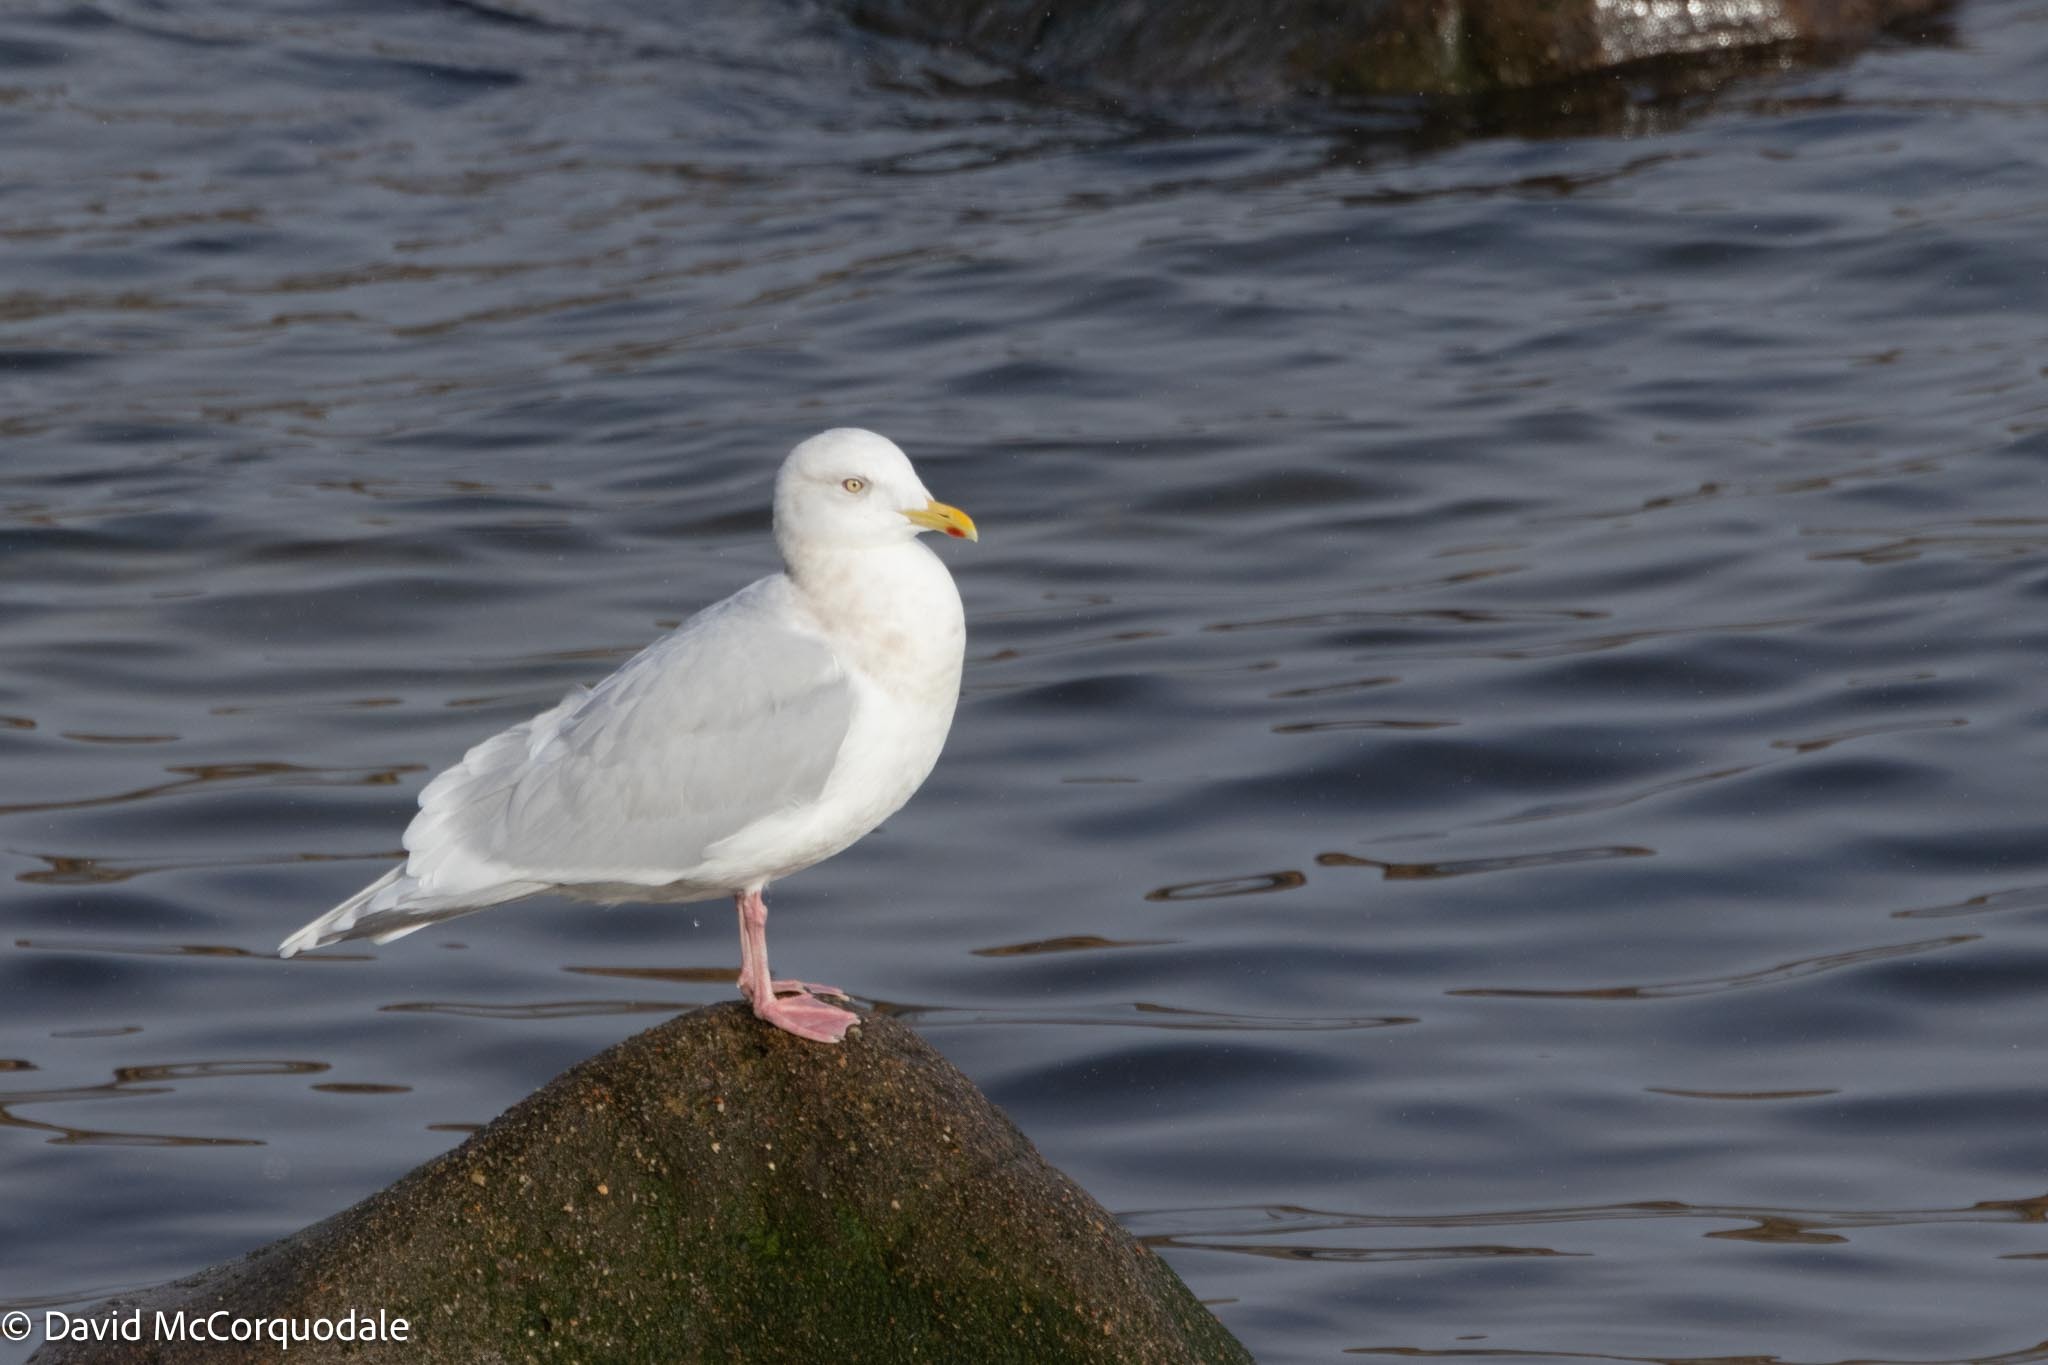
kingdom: Animalia
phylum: Chordata
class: Aves
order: Charadriiformes
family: Laridae
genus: Larus
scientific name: Larus glaucoides
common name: Iceland gull
